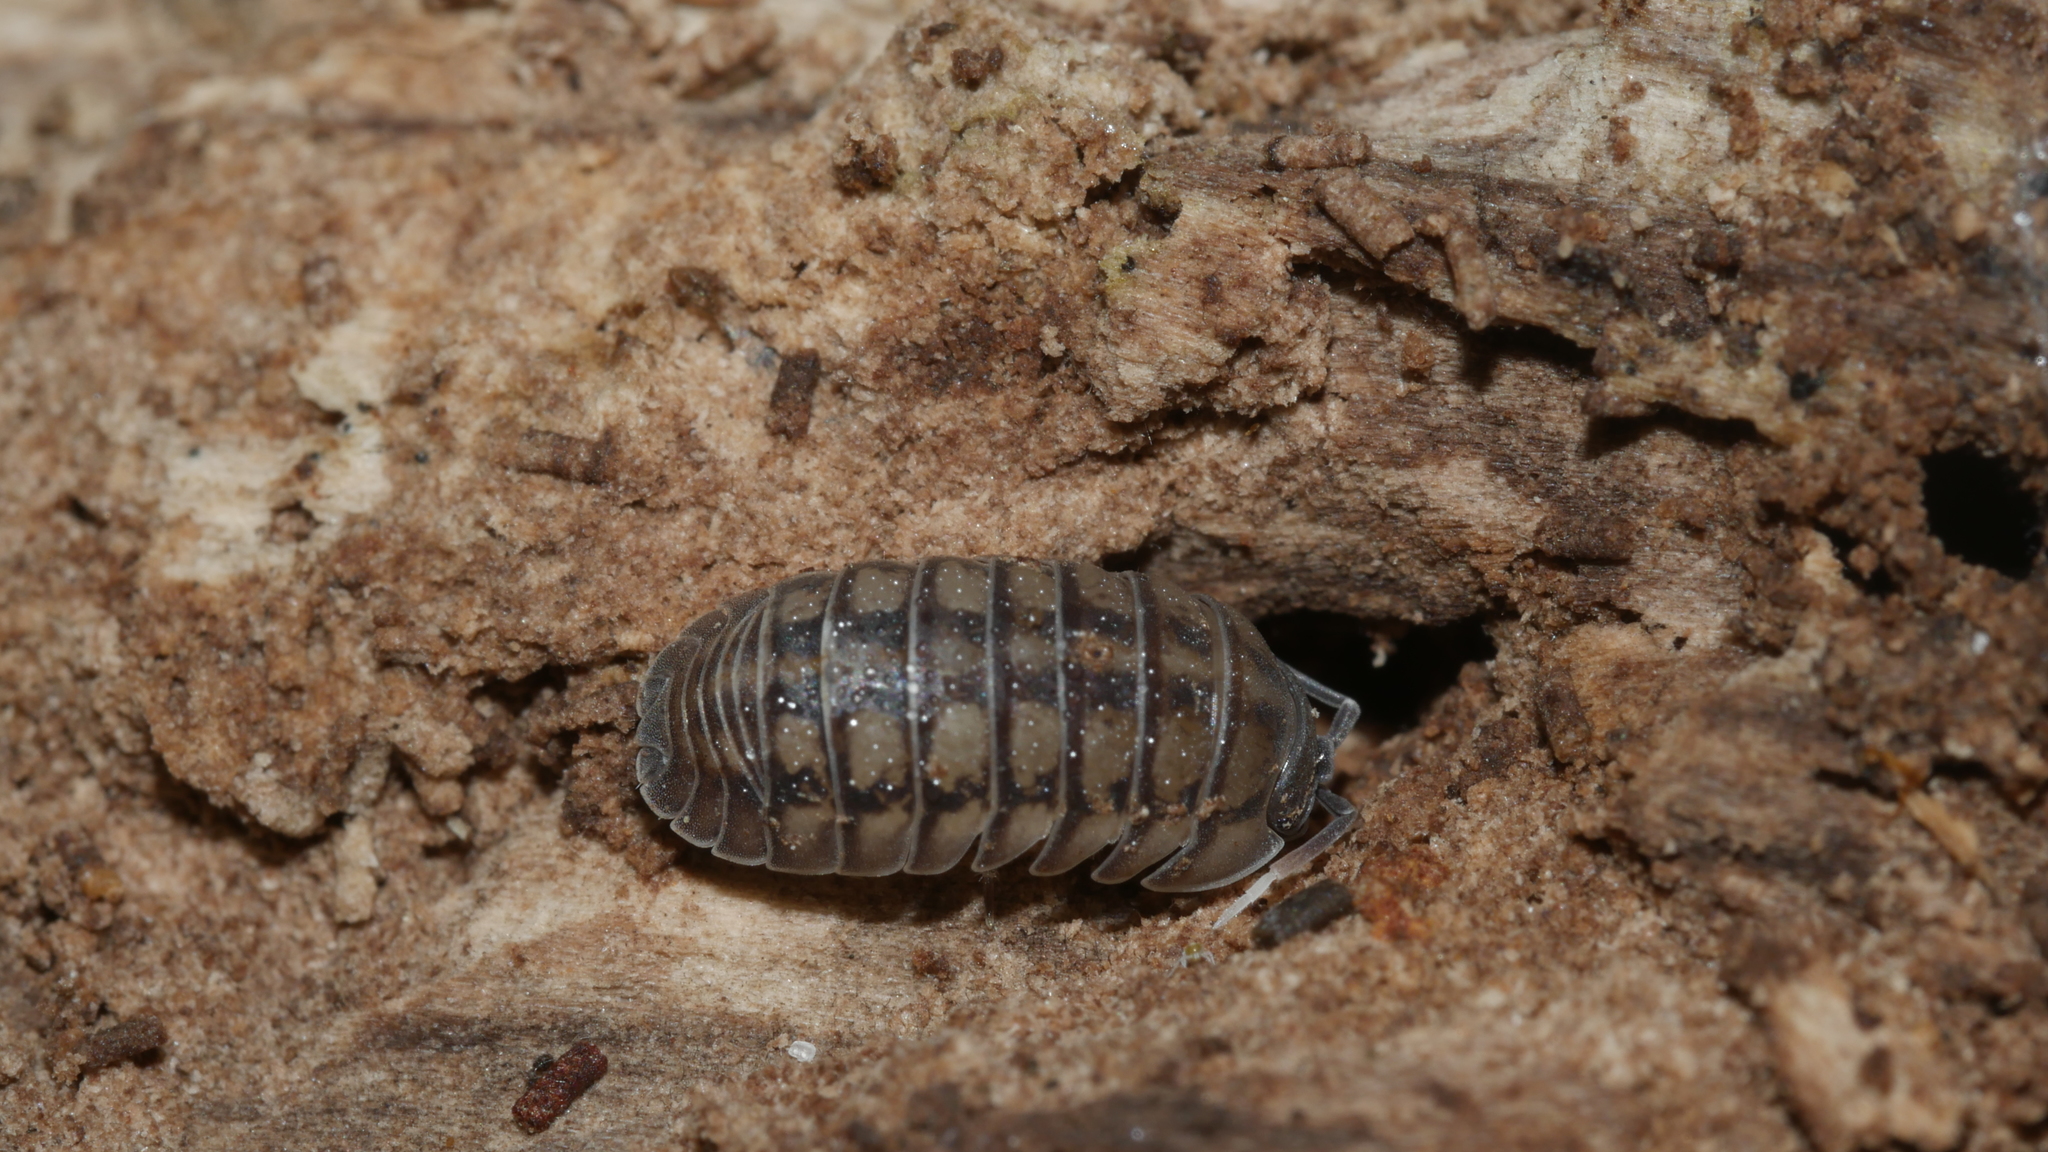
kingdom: Animalia
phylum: Arthropoda
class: Malacostraca
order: Isopoda
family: Armadillidiidae
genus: Armadillidium
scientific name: Armadillidium nasatum
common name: Isopod
